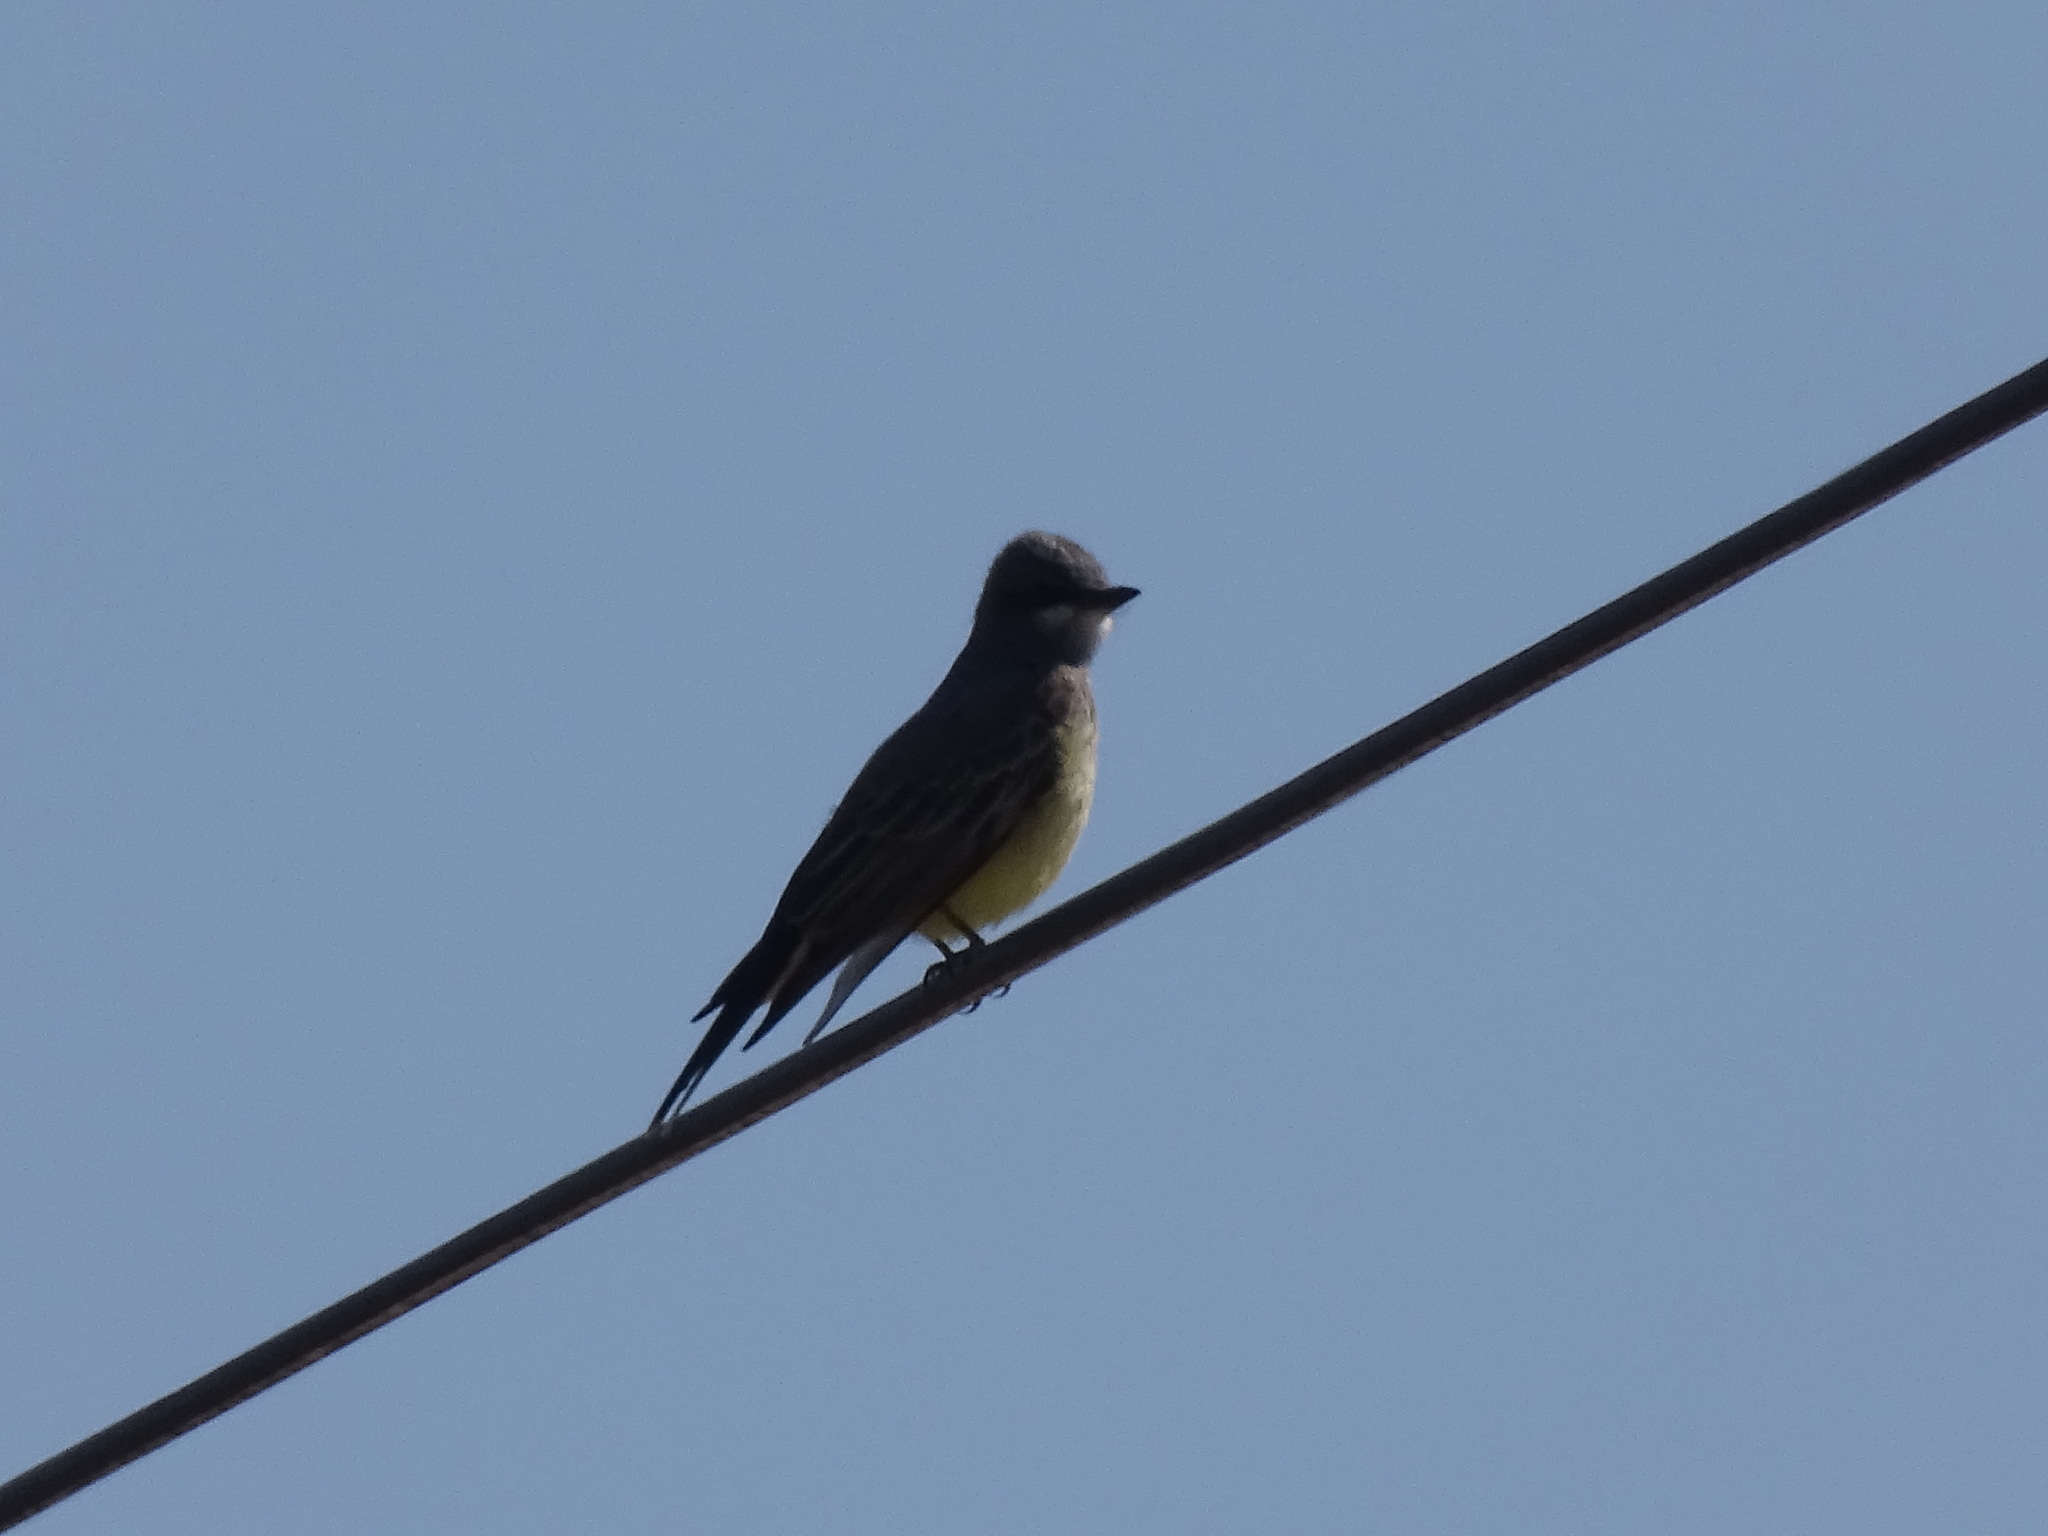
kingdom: Animalia
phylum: Chordata
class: Aves
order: Passeriformes
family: Tyrannidae
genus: Tyrannus
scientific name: Tyrannus vociferans
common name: Cassin's kingbird
